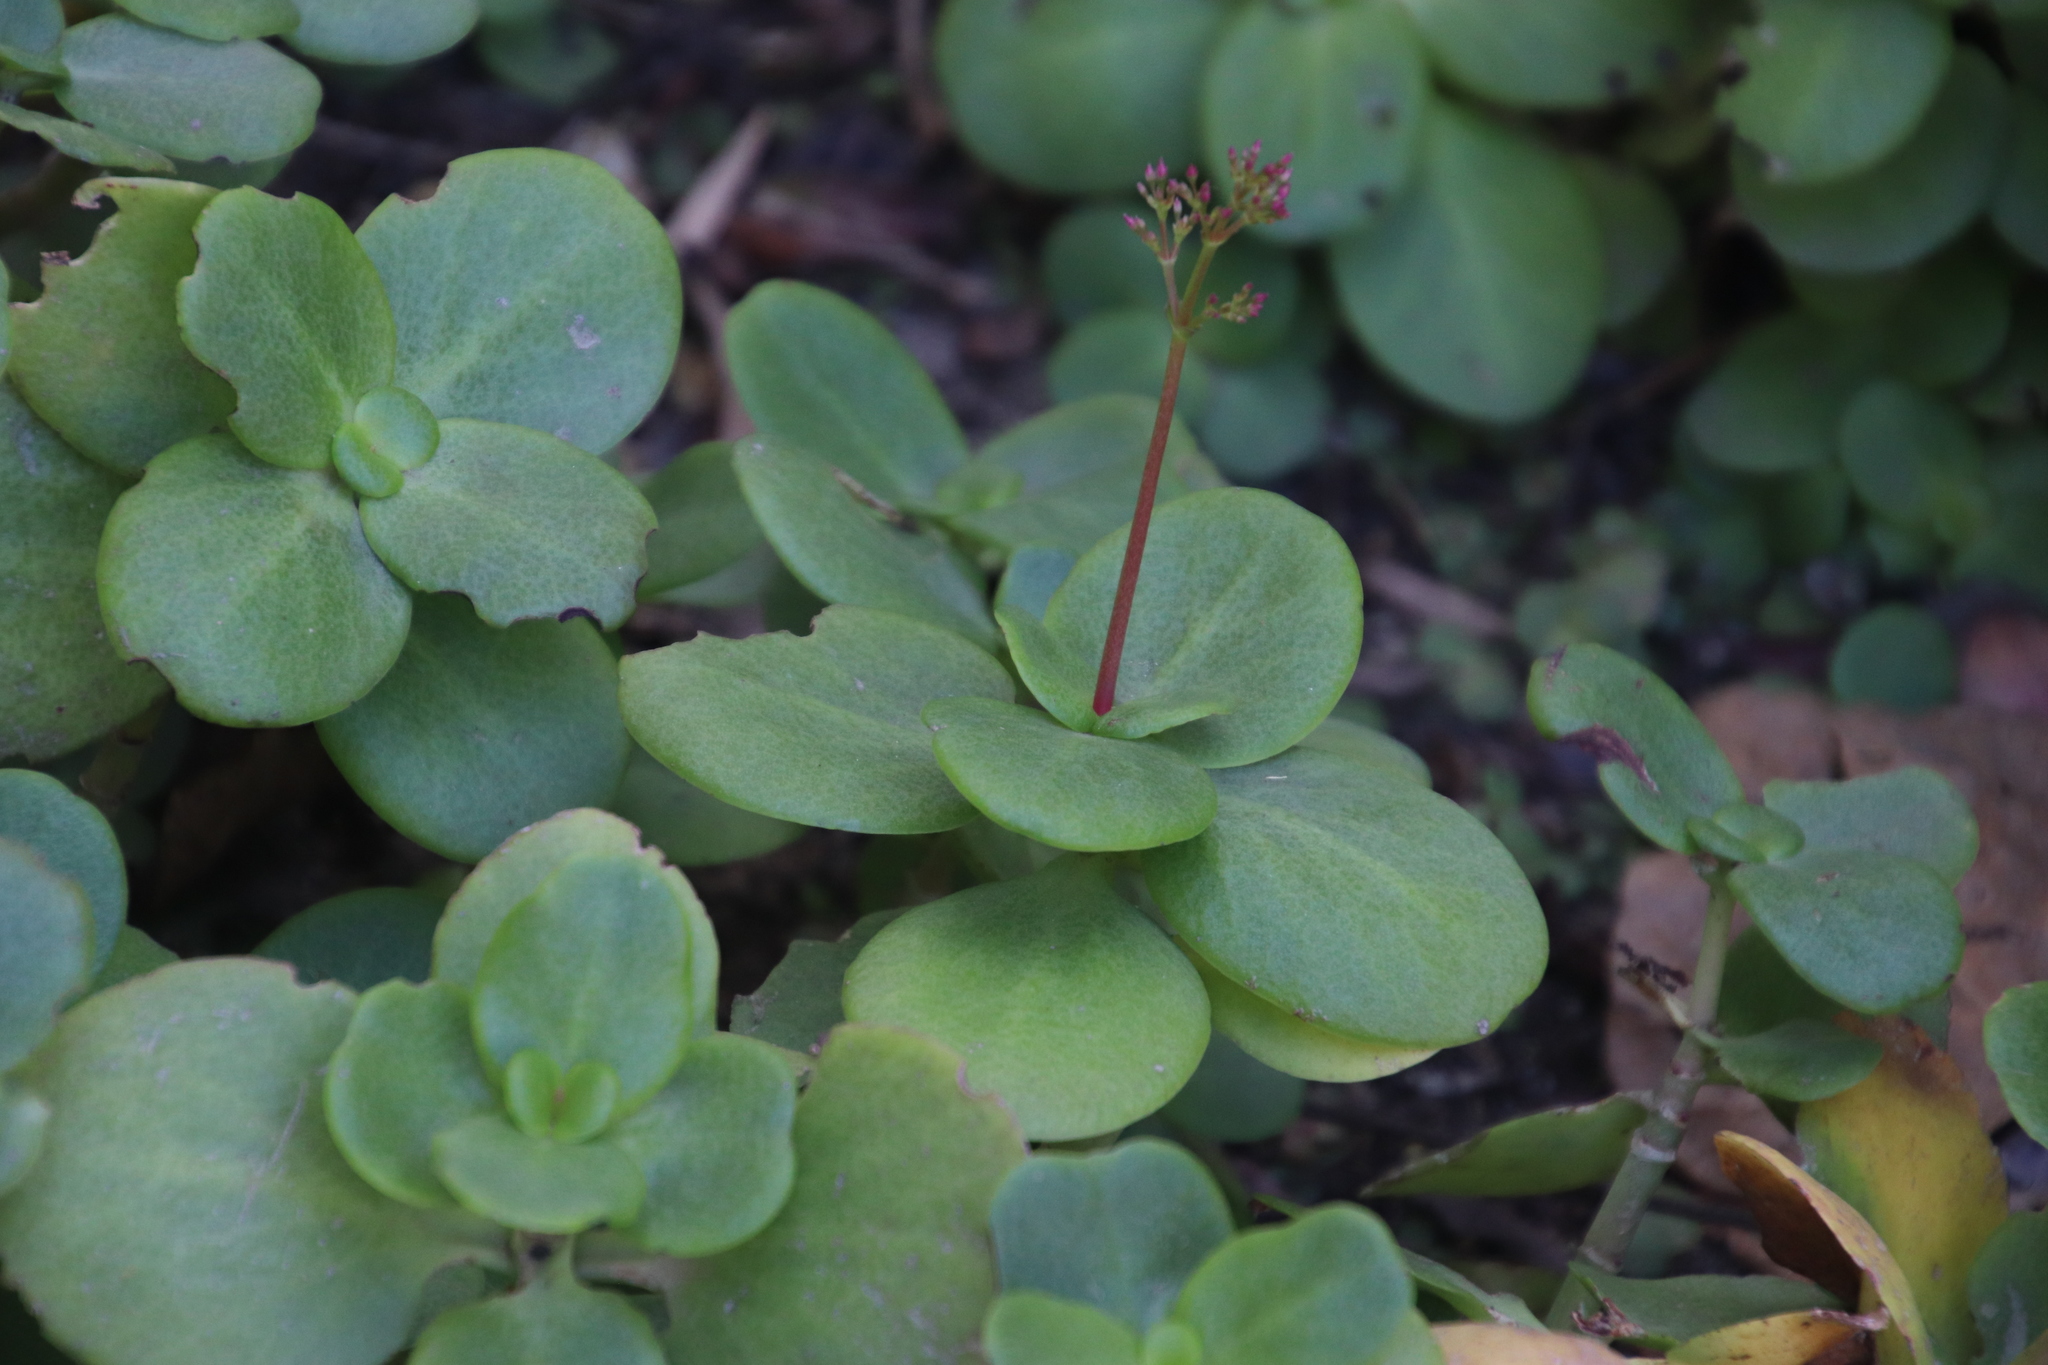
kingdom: Plantae
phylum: Tracheophyta
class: Magnoliopsida
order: Saxifragales
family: Crassulaceae
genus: Crassula
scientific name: Crassula multicava
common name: Cape province pygmyweed
